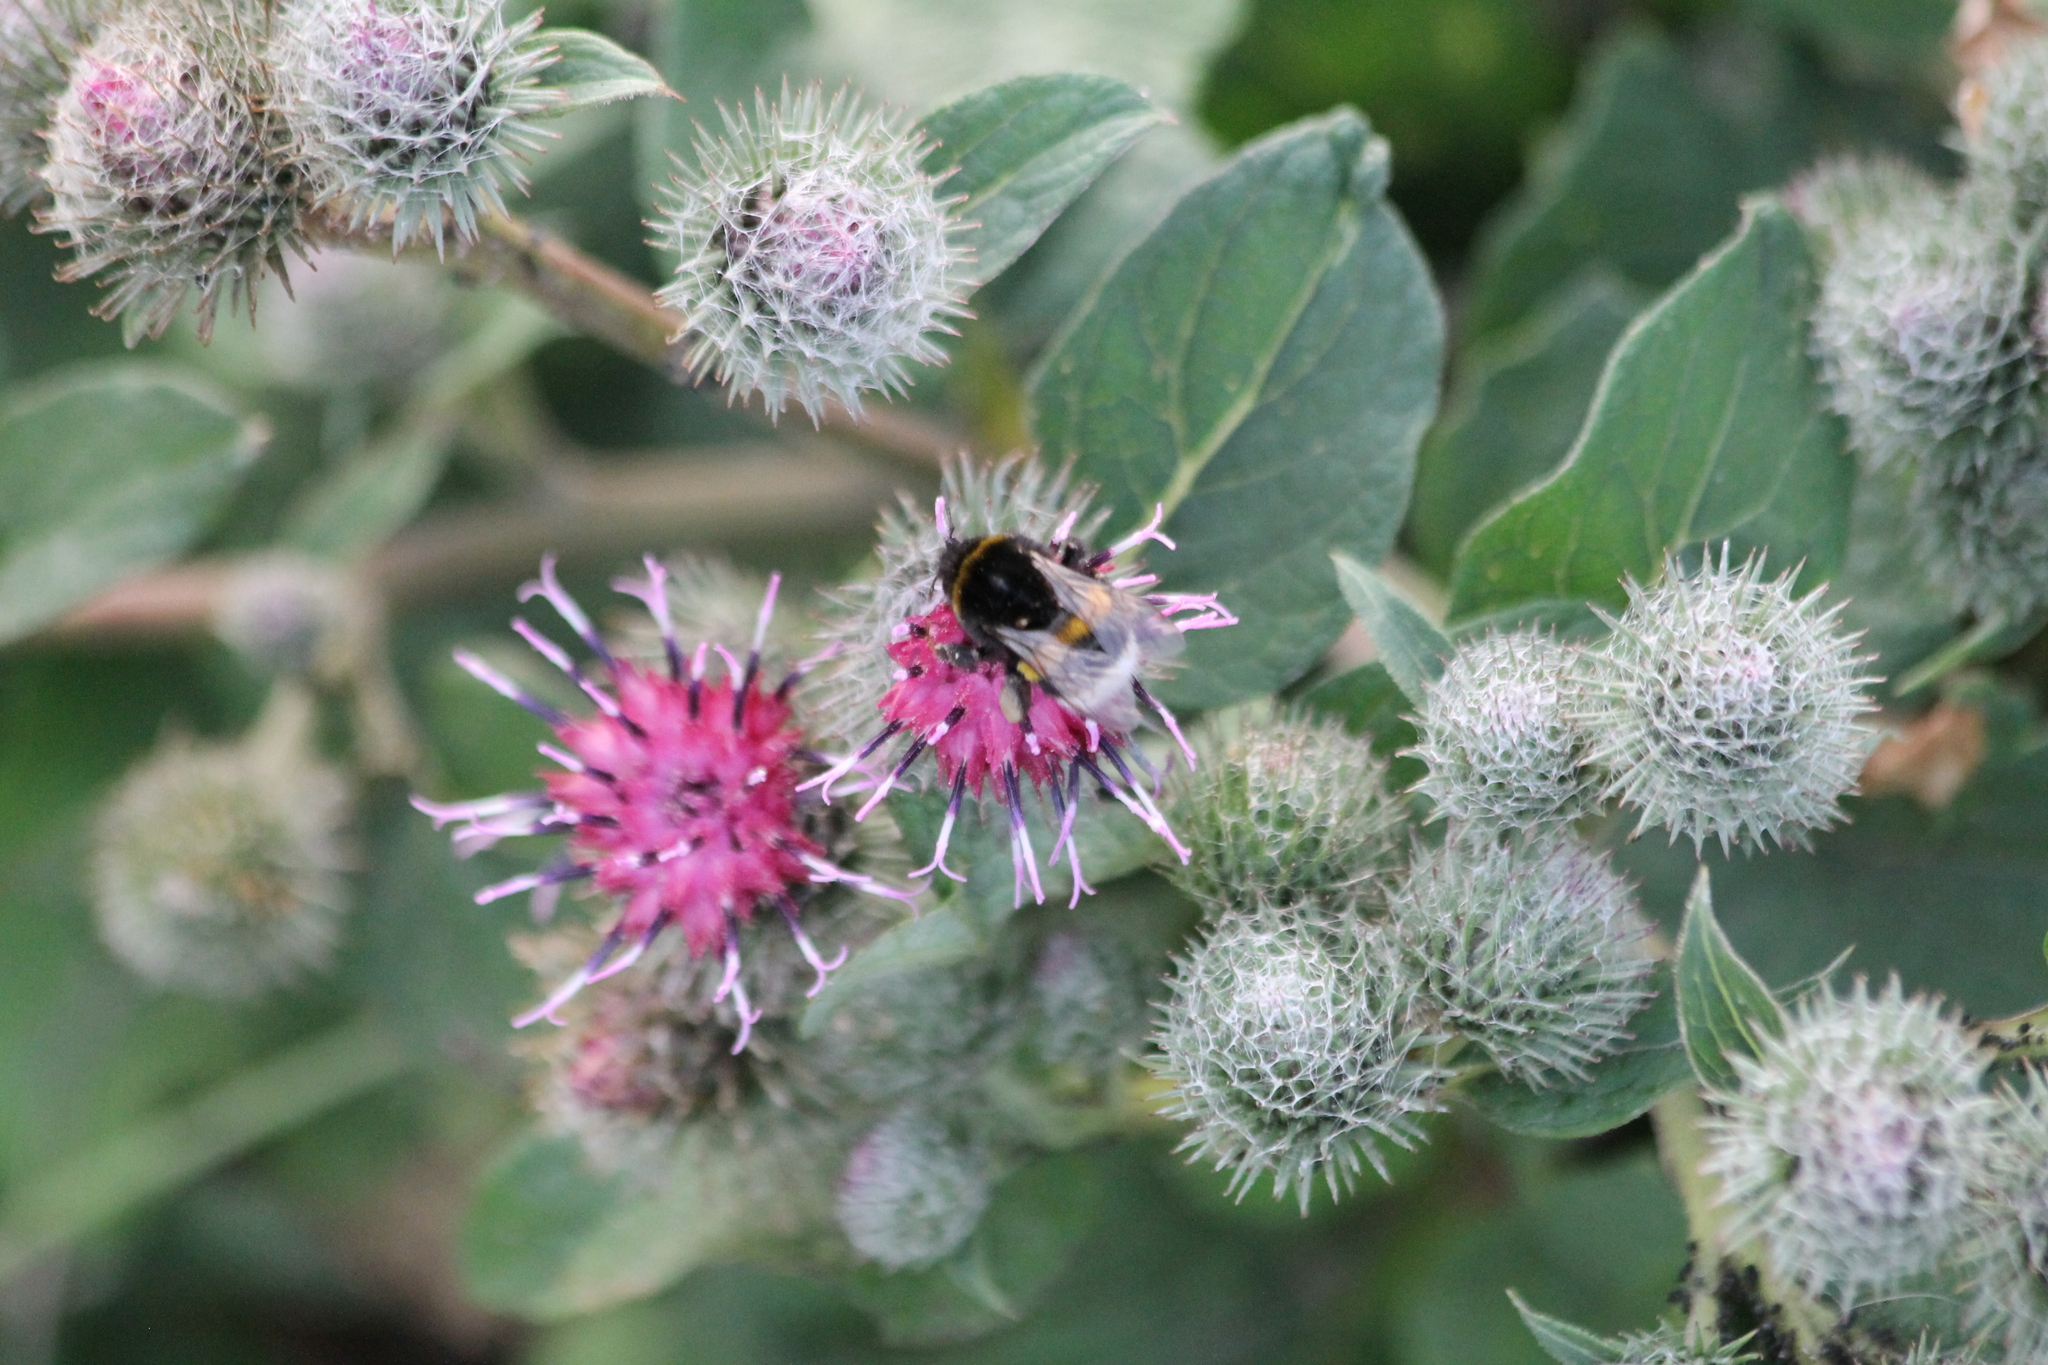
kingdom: Animalia
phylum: Arthropoda
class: Insecta
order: Hymenoptera
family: Apidae
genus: Bombus
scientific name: Bombus
